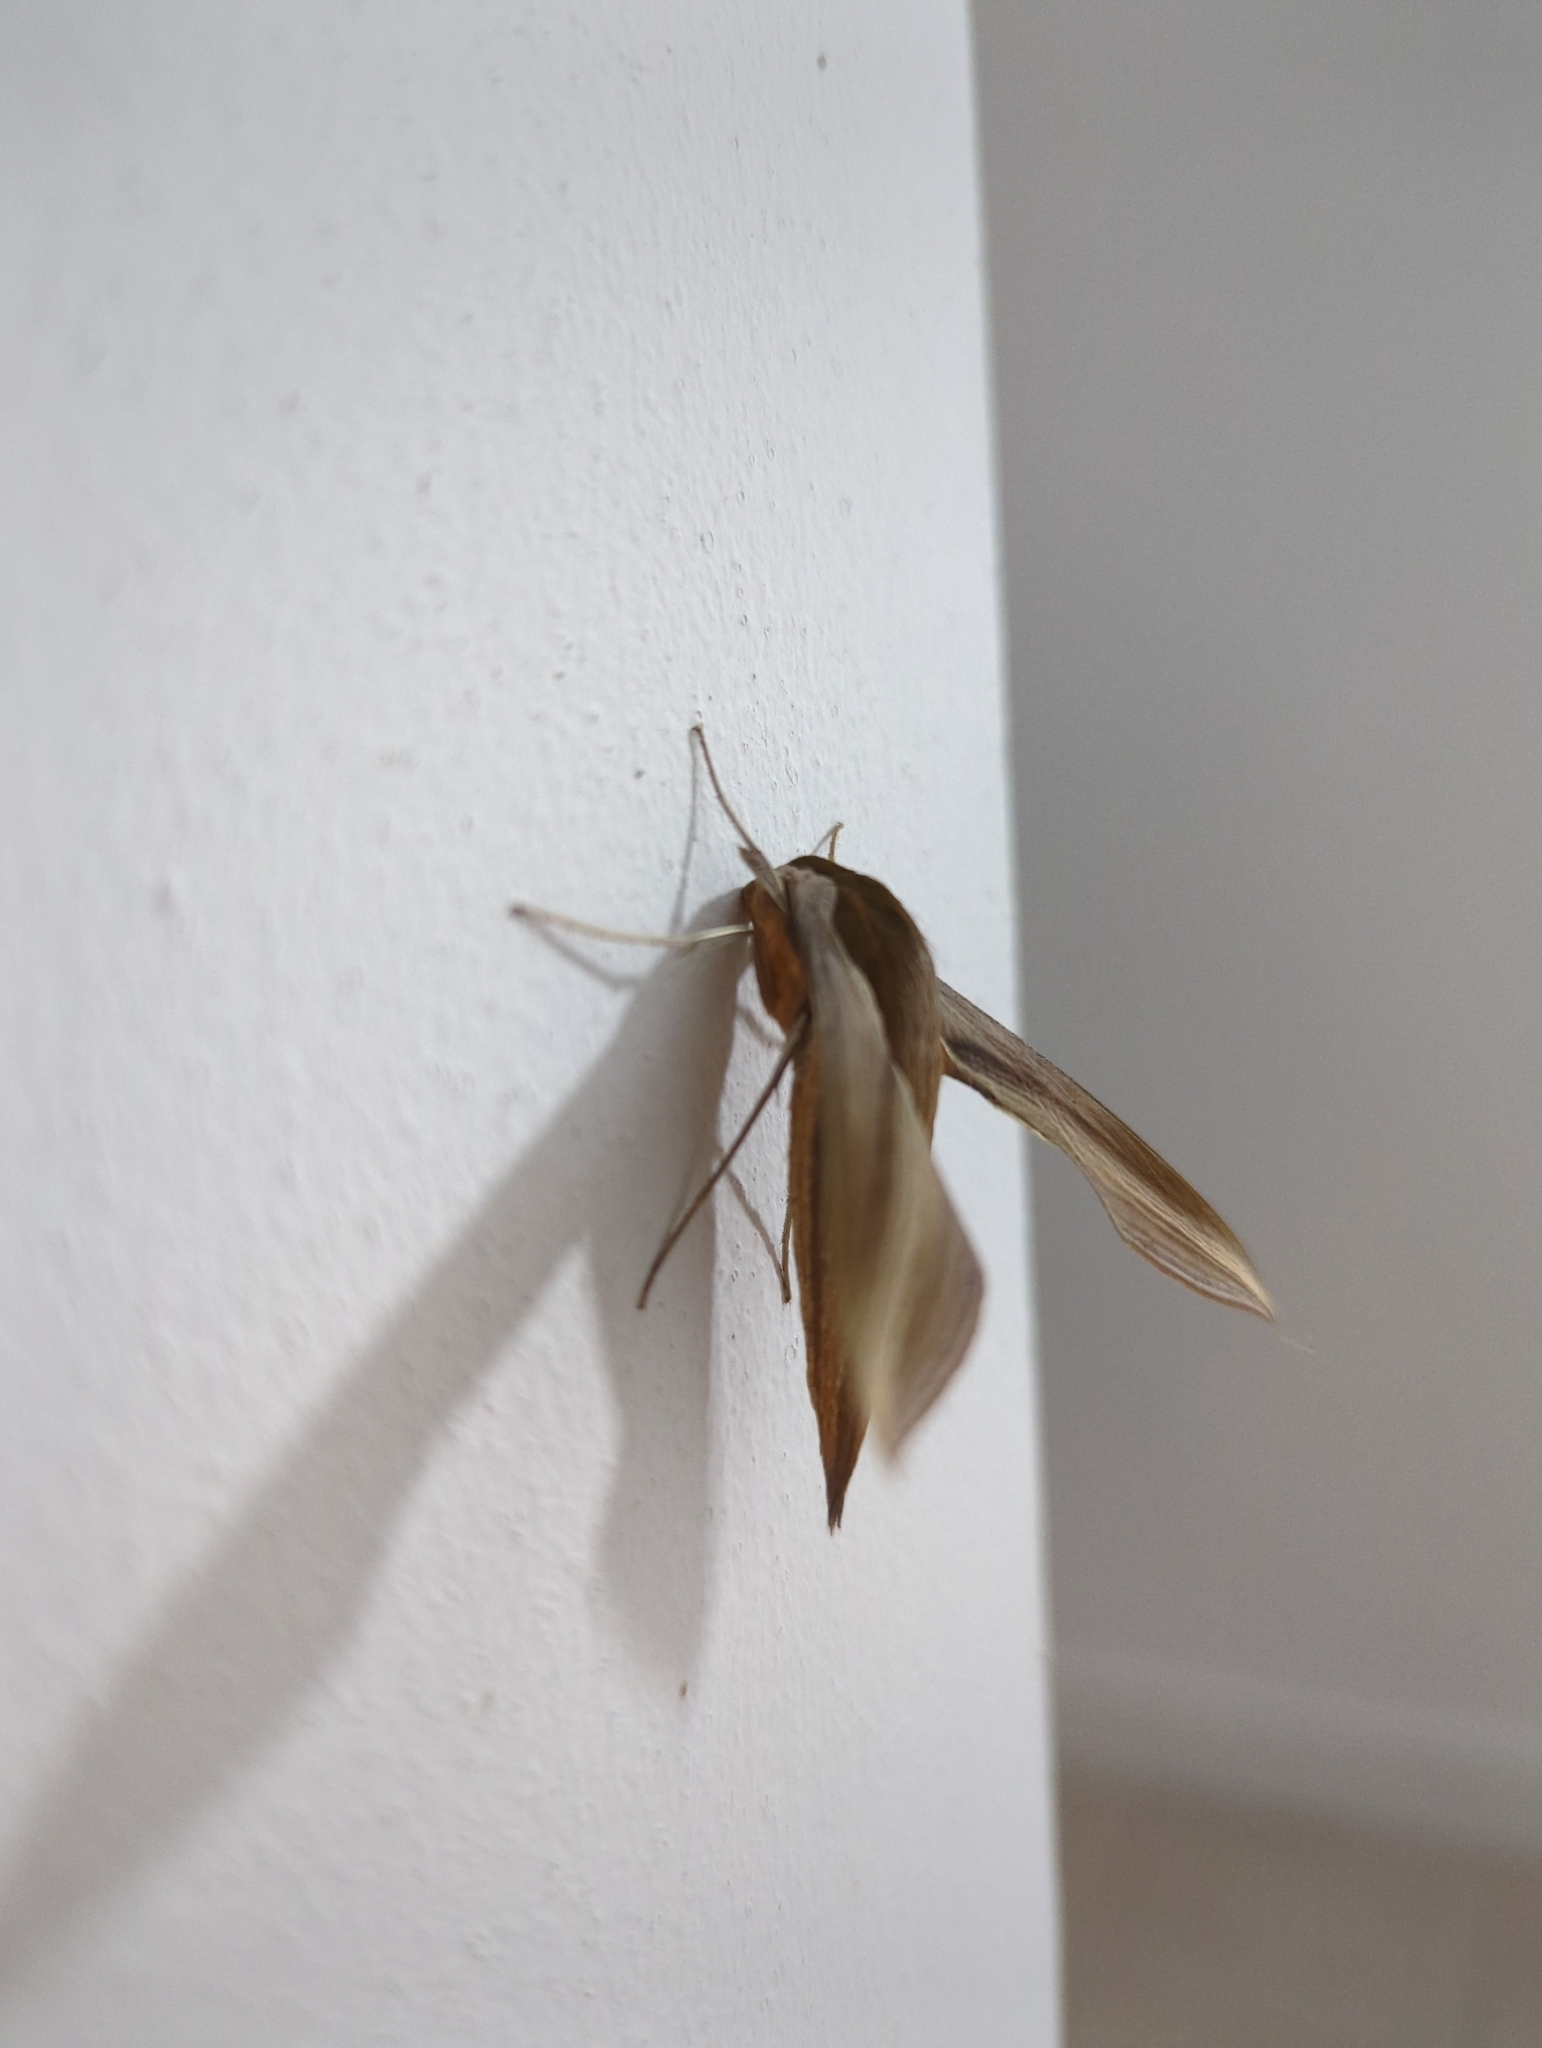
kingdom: Animalia
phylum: Arthropoda
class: Insecta
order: Lepidoptera
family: Sphingidae
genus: Xylophanes
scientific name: Xylophanes tersa
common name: Tersa sphinx
